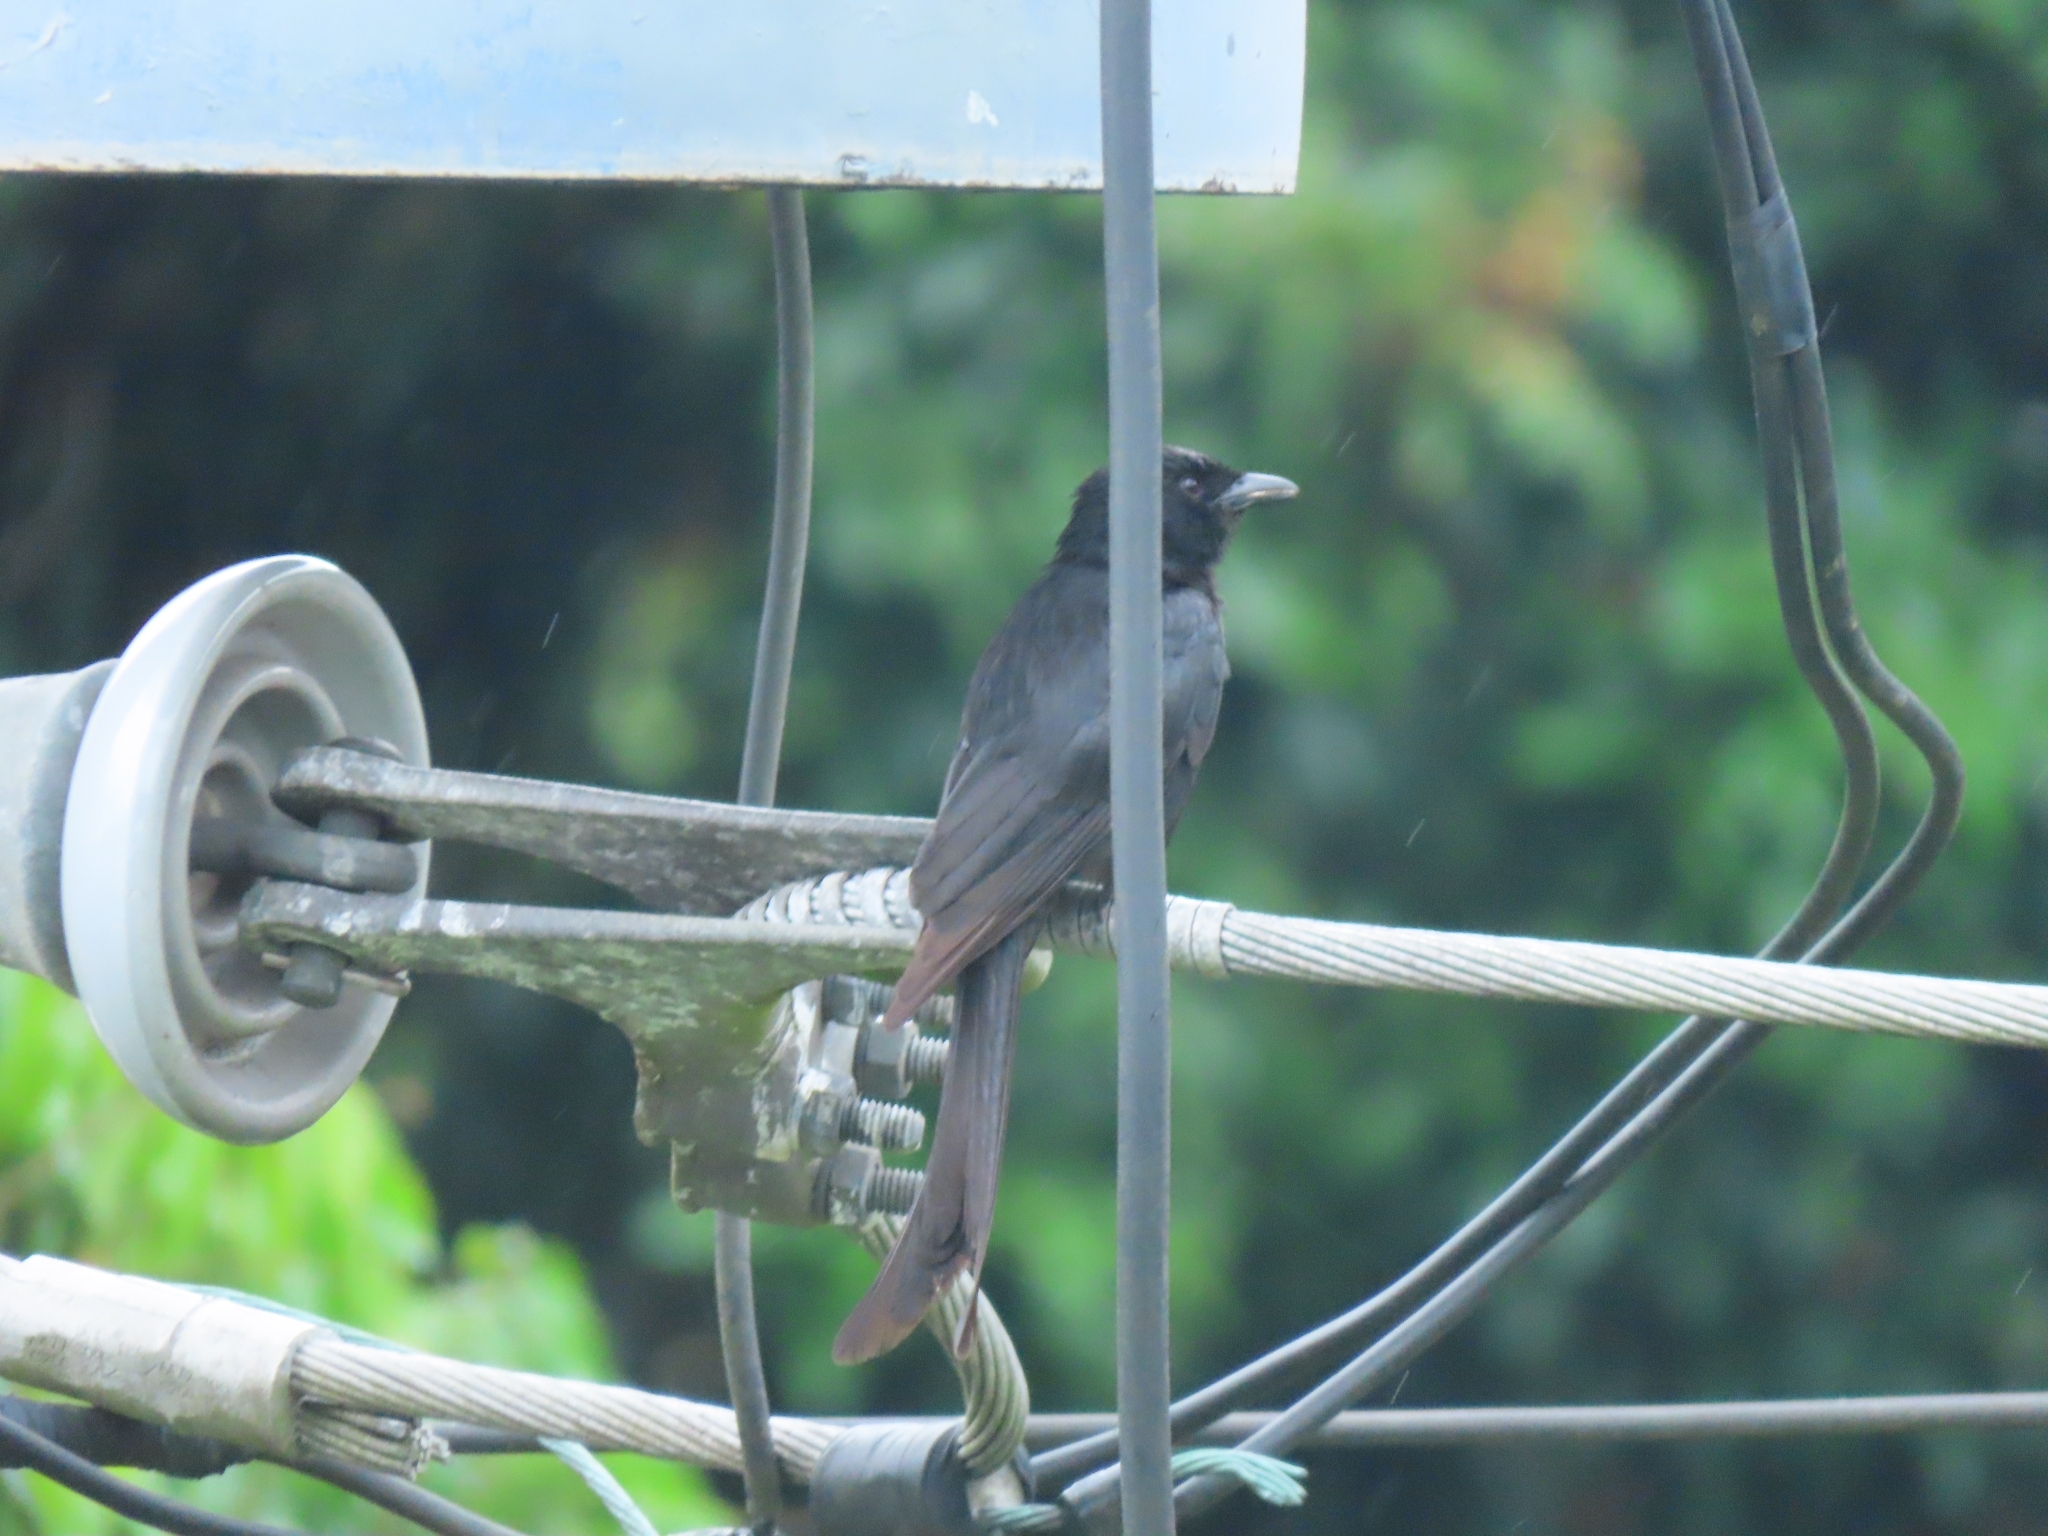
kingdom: Animalia
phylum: Chordata
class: Aves
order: Passeriformes
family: Dicruridae
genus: Dicrurus
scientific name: Dicrurus macrocercus
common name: Black drongo
